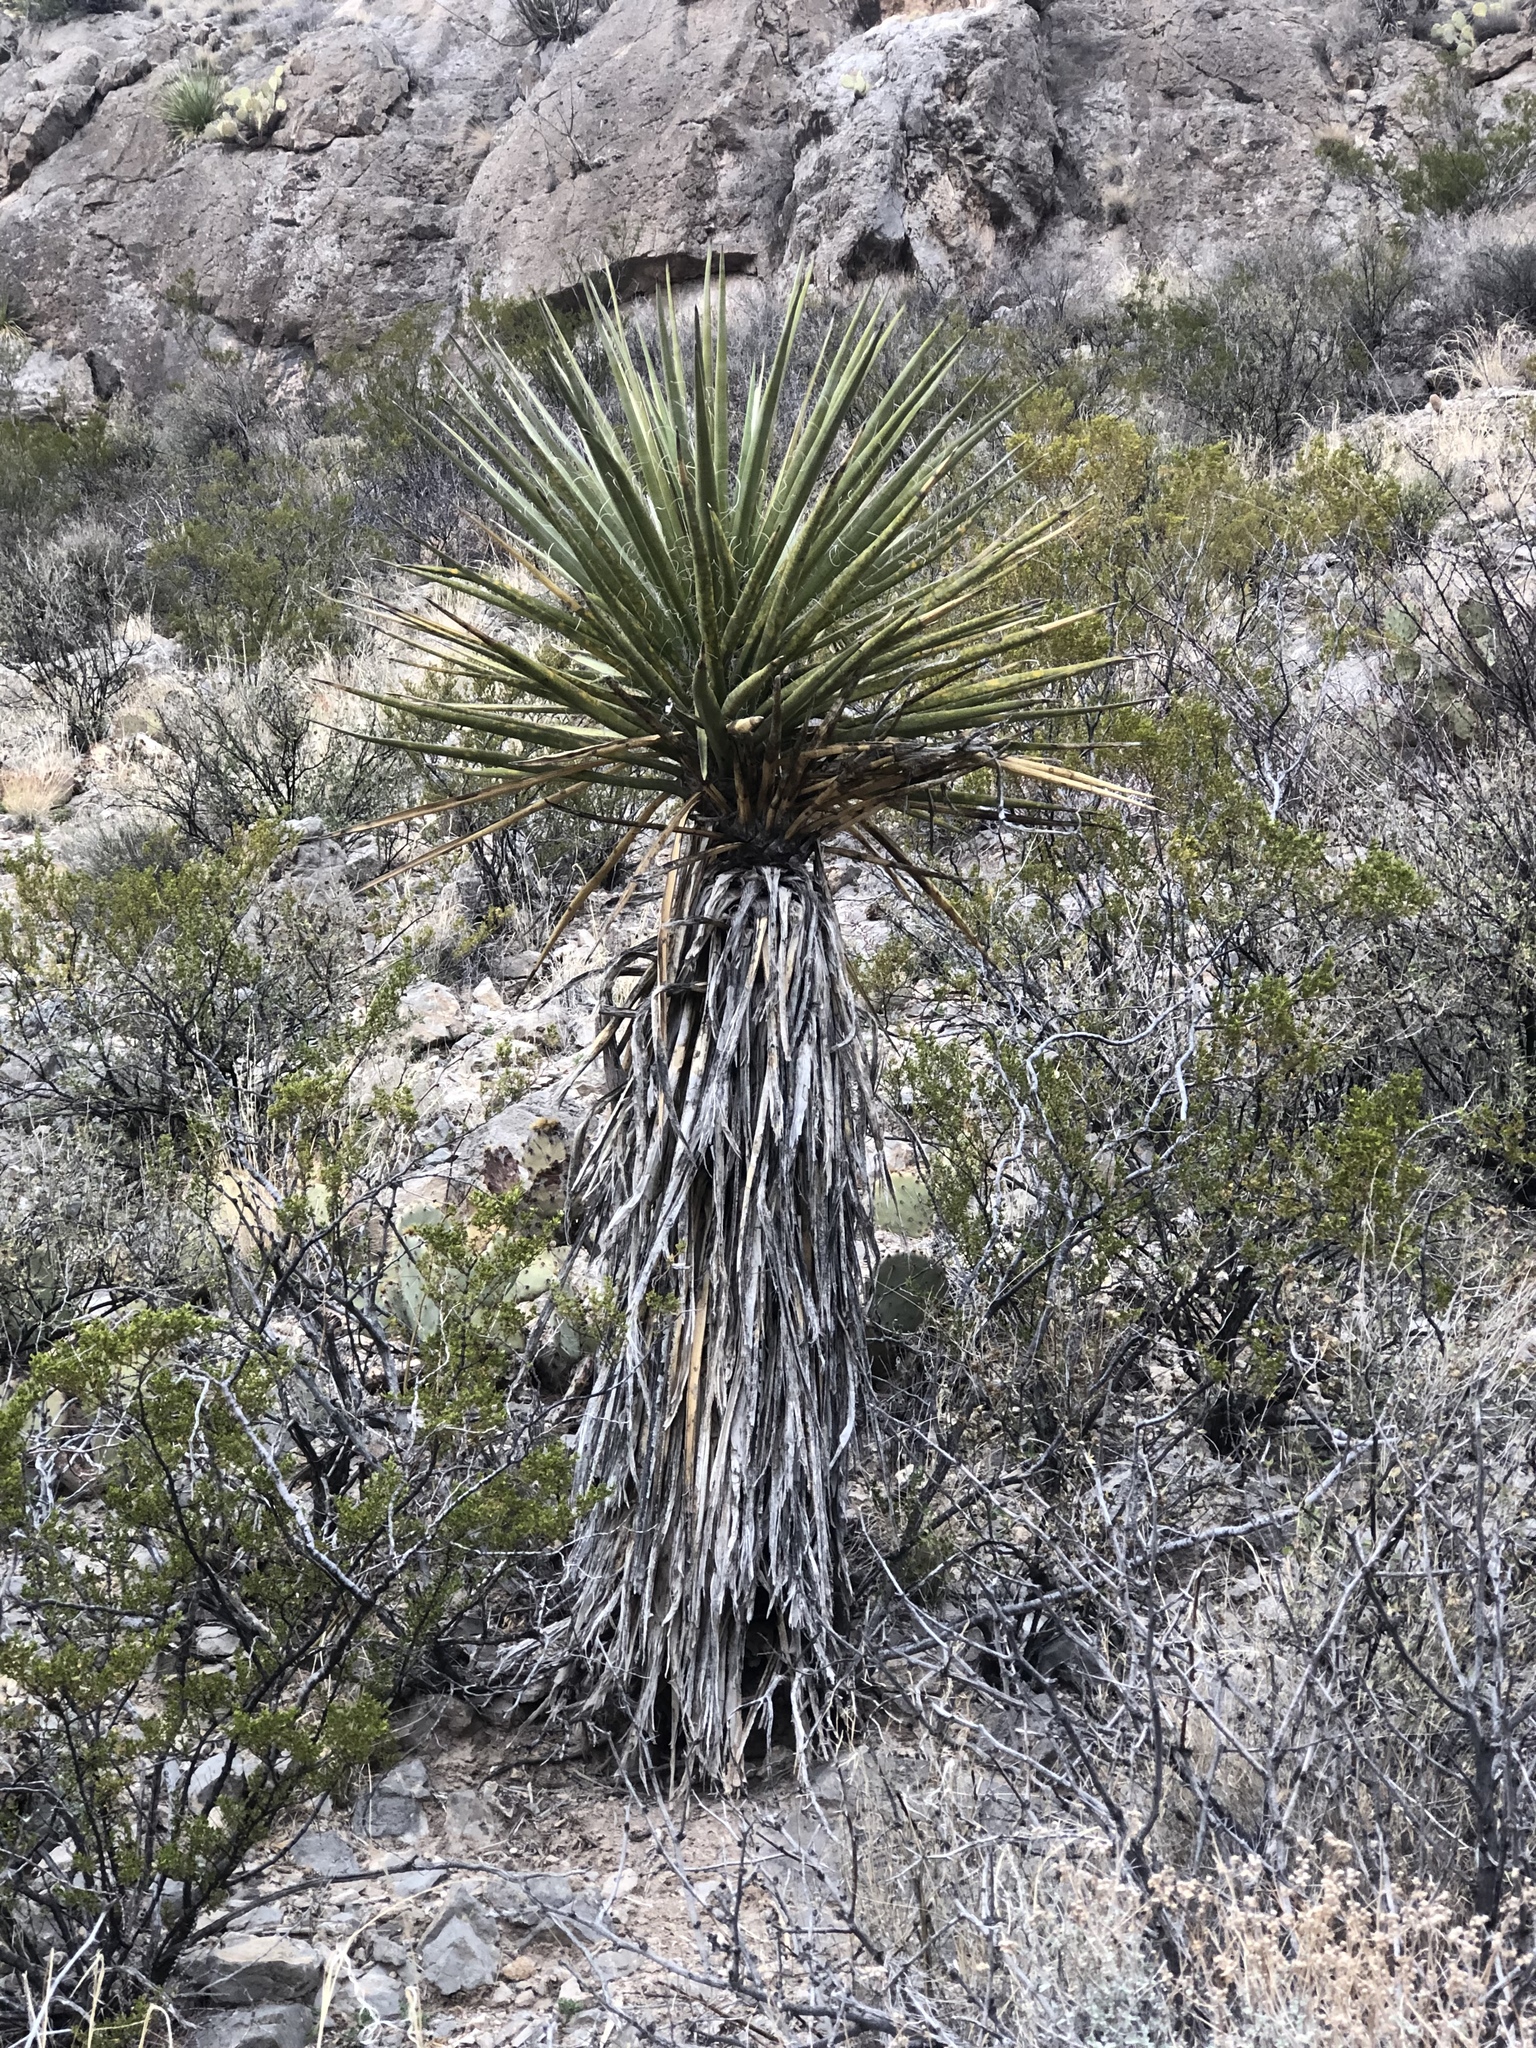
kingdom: Plantae
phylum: Tracheophyta
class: Liliopsida
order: Asparagales
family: Asparagaceae
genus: Yucca
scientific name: Yucca treculiana
